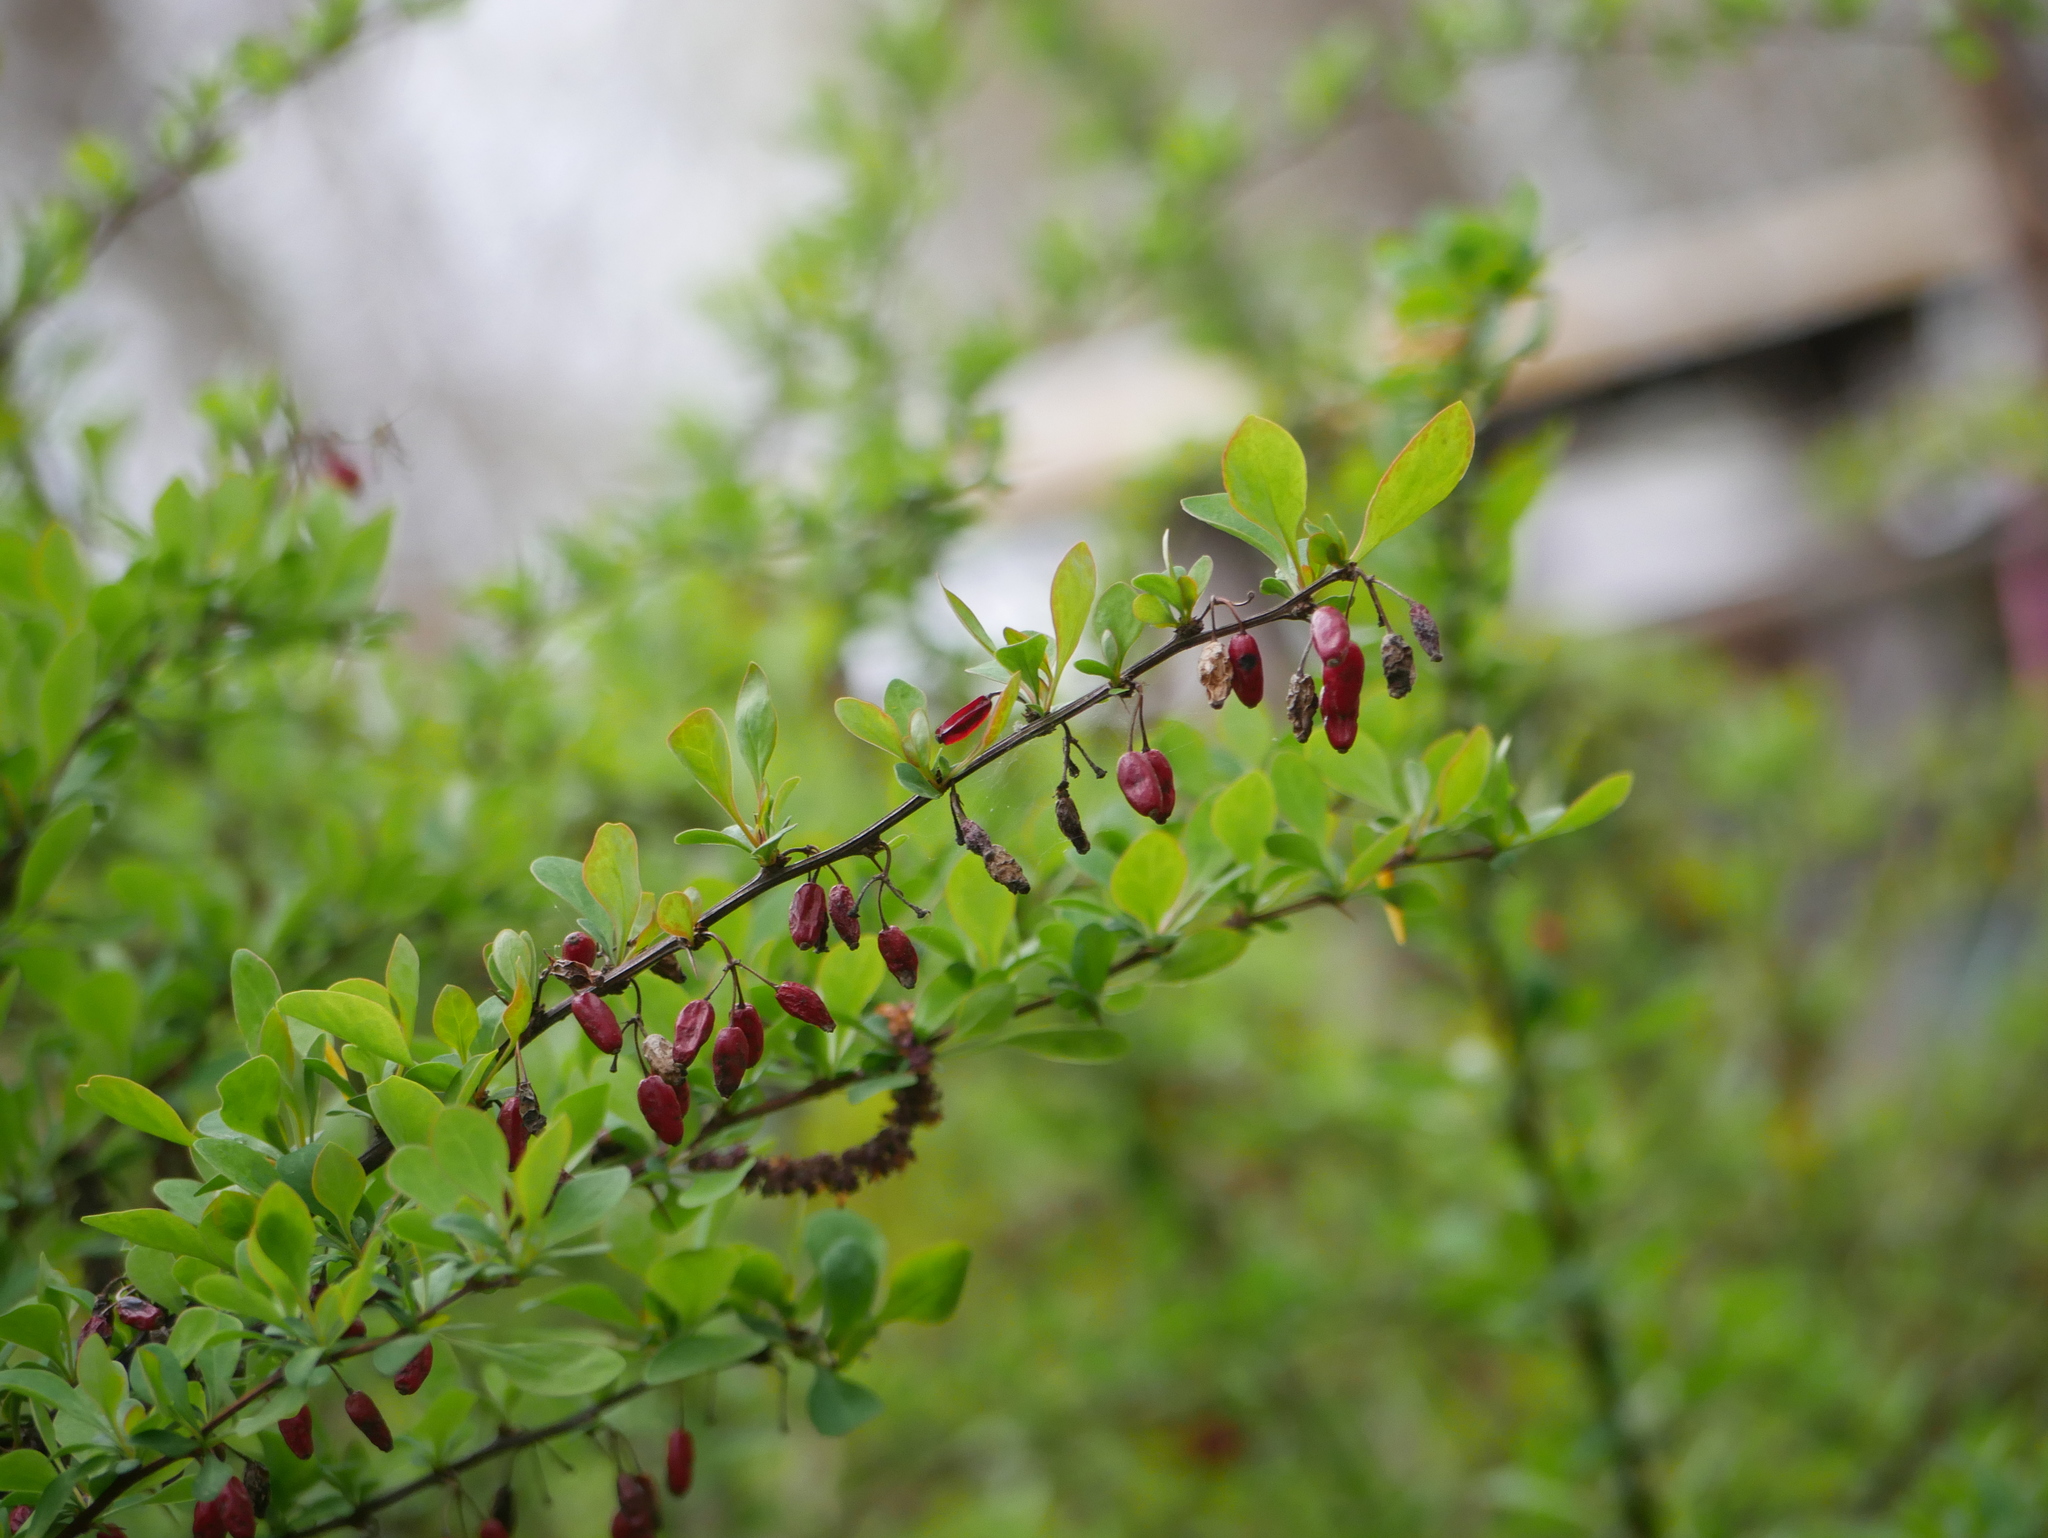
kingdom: Plantae
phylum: Tracheophyta
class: Magnoliopsida
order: Ranunculales
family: Berberidaceae
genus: Berberis
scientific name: Berberis vulgaris
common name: Barberry
